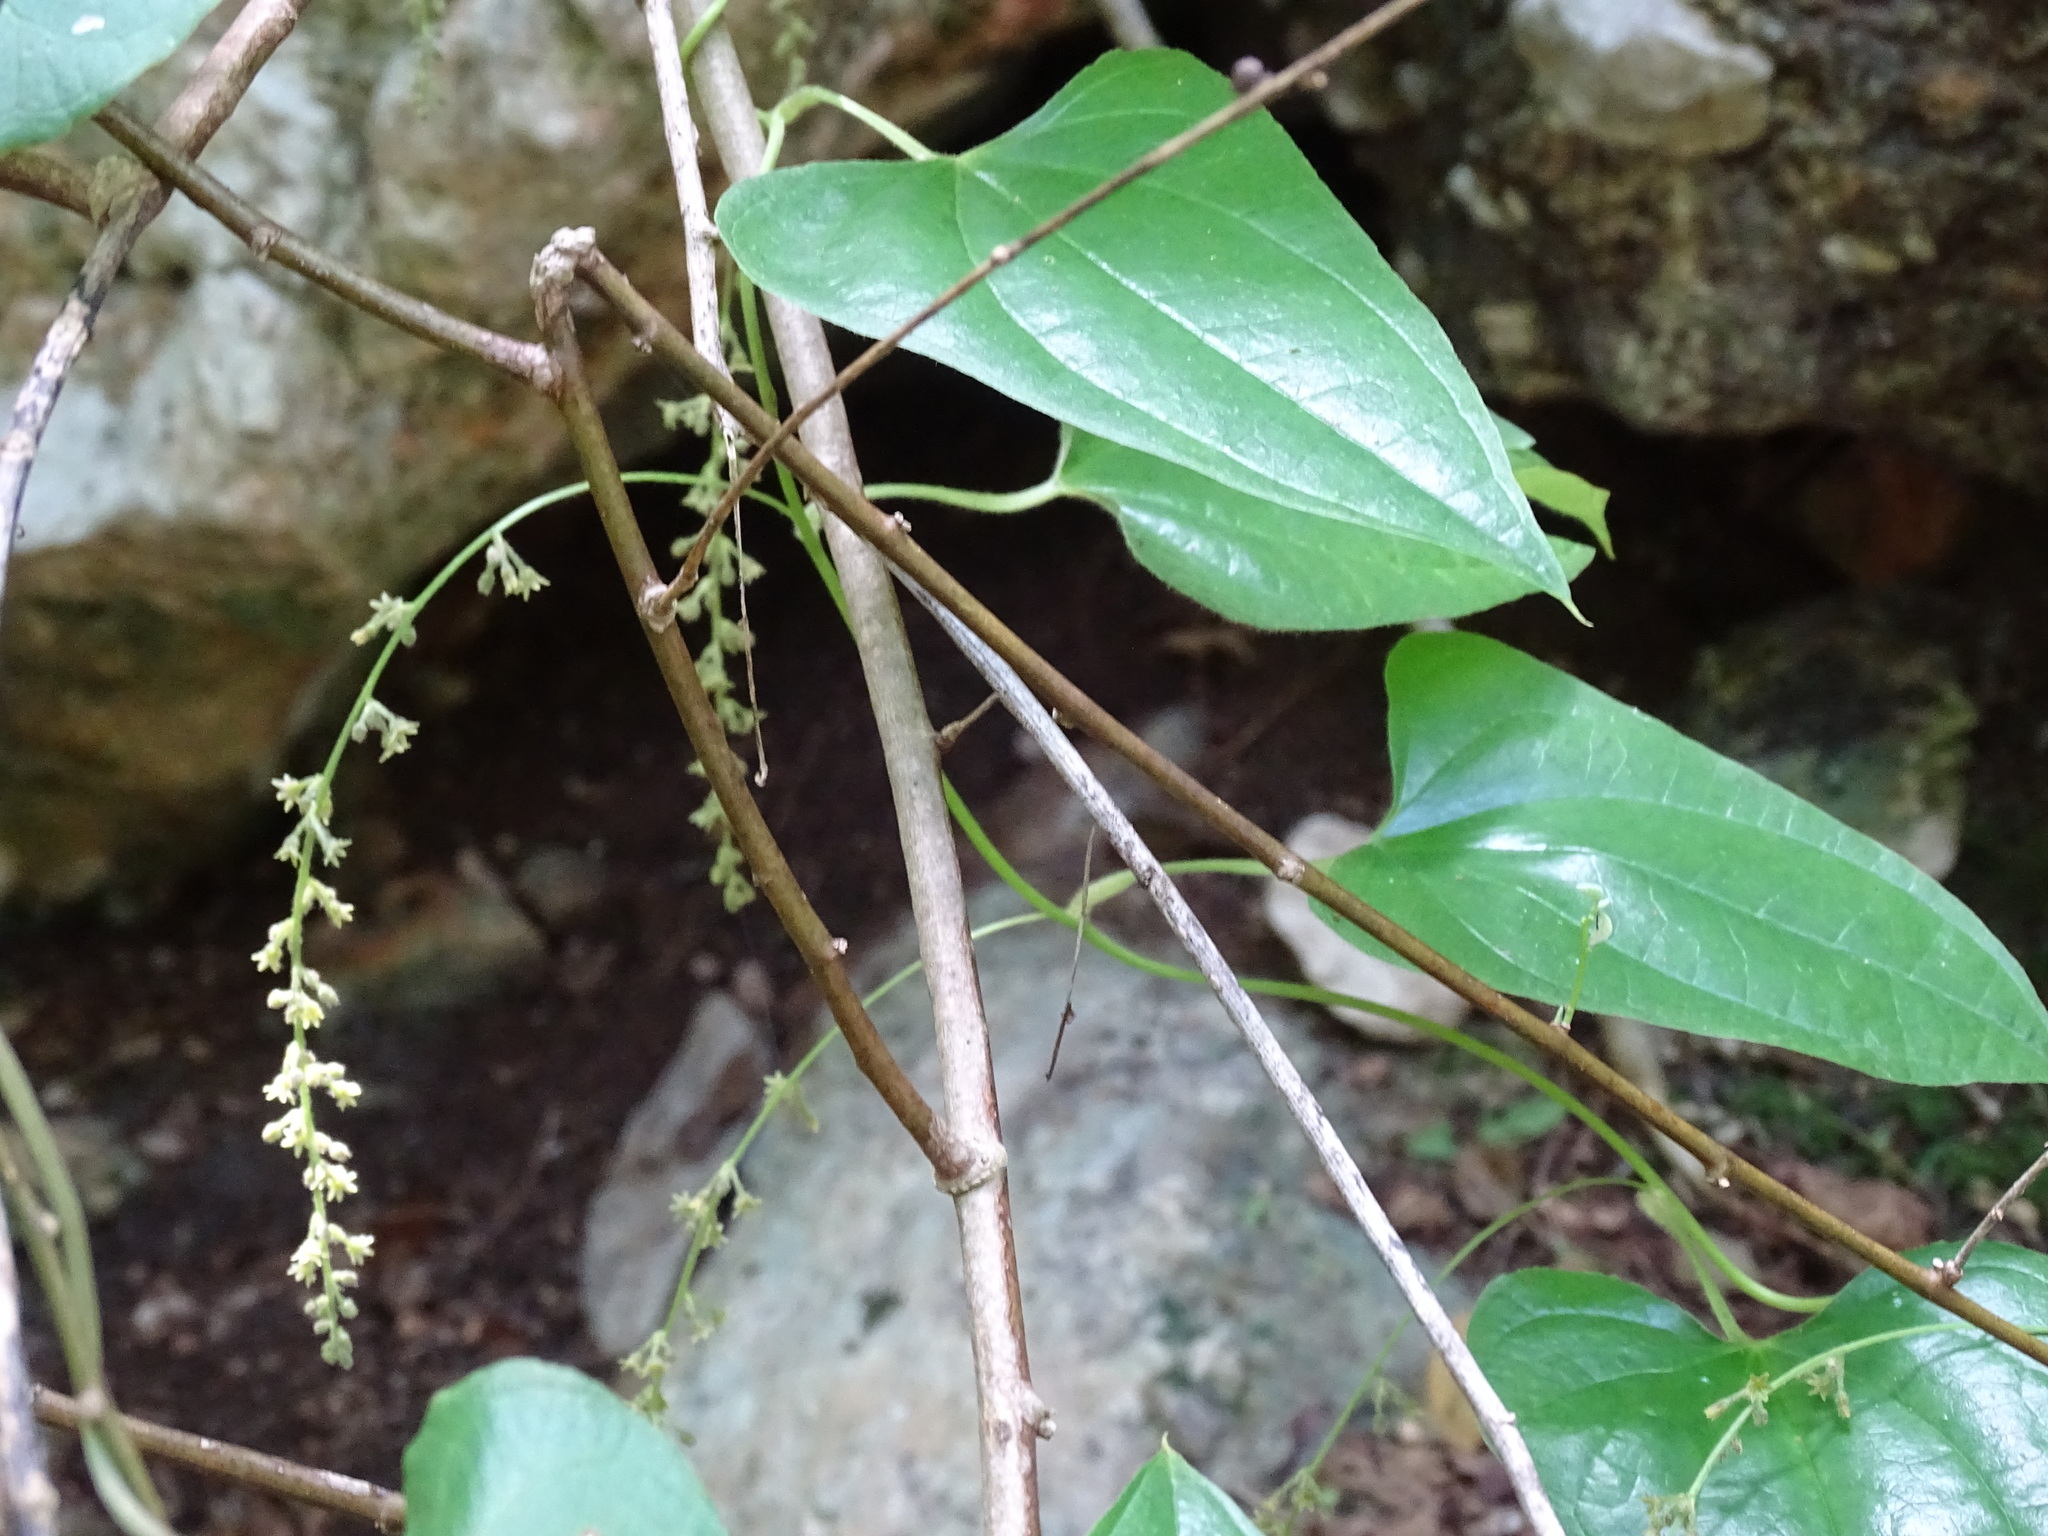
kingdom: Plantae
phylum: Tracheophyta
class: Liliopsida
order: Dioscoreales
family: Dioscoreaceae
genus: Dioscorea
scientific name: Dioscorea densiflora
